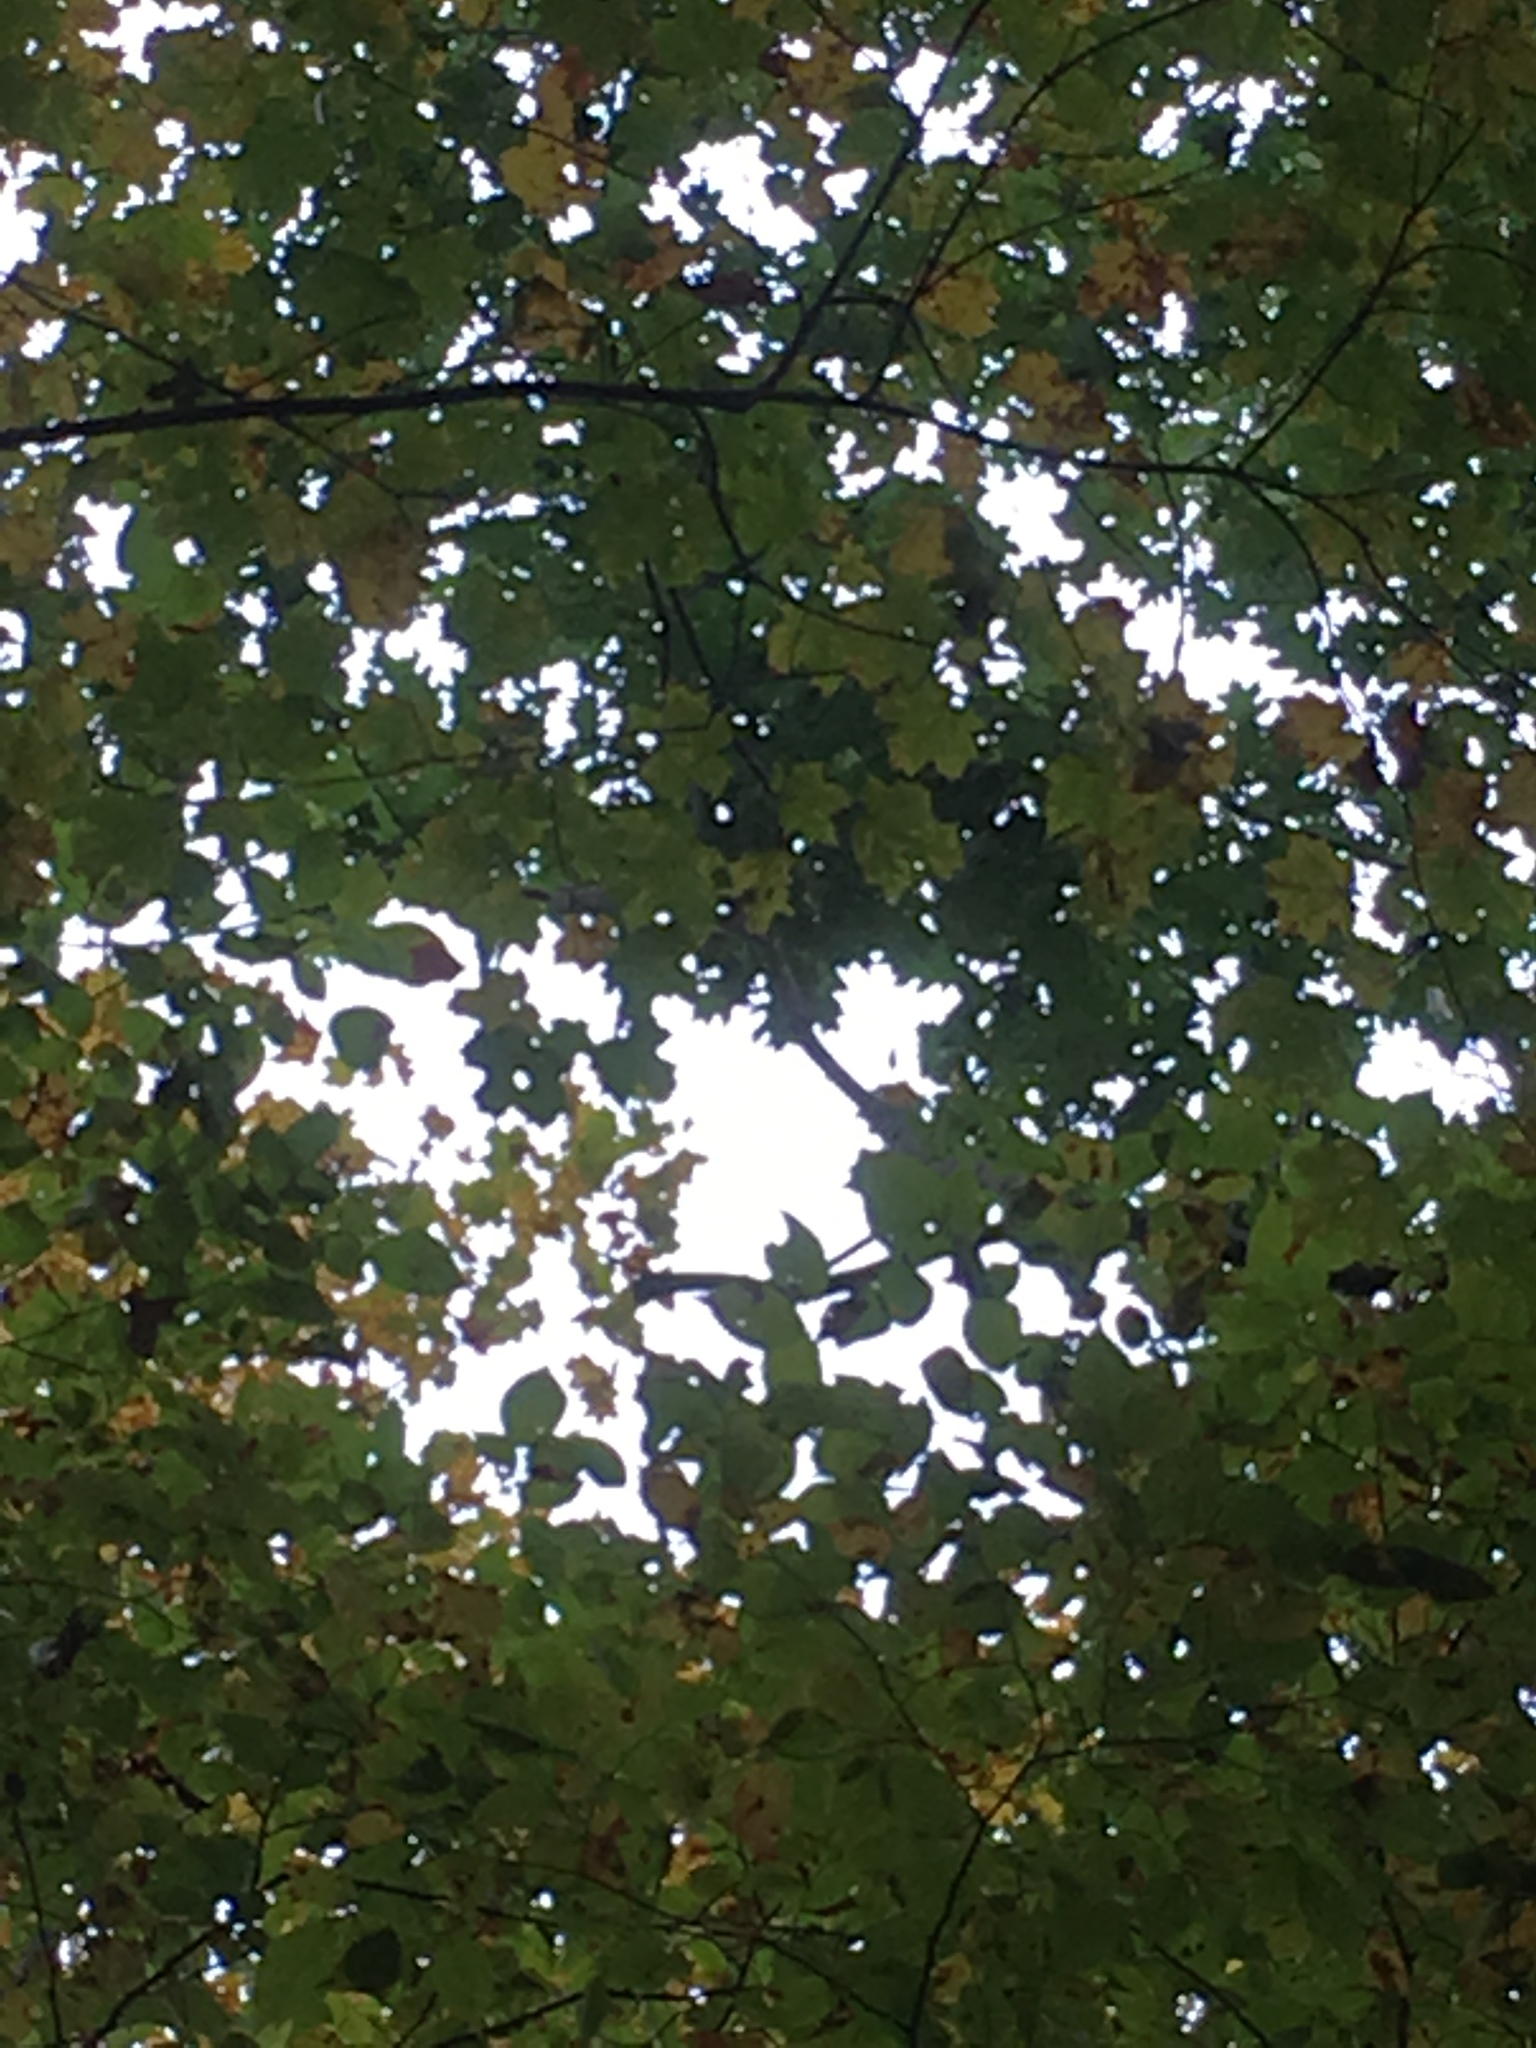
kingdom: Plantae
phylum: Tracheophyta
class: Magnoliopsida
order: Fagales
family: Fagaceae
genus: Quercus
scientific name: Quercus rubra
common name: Red oak
